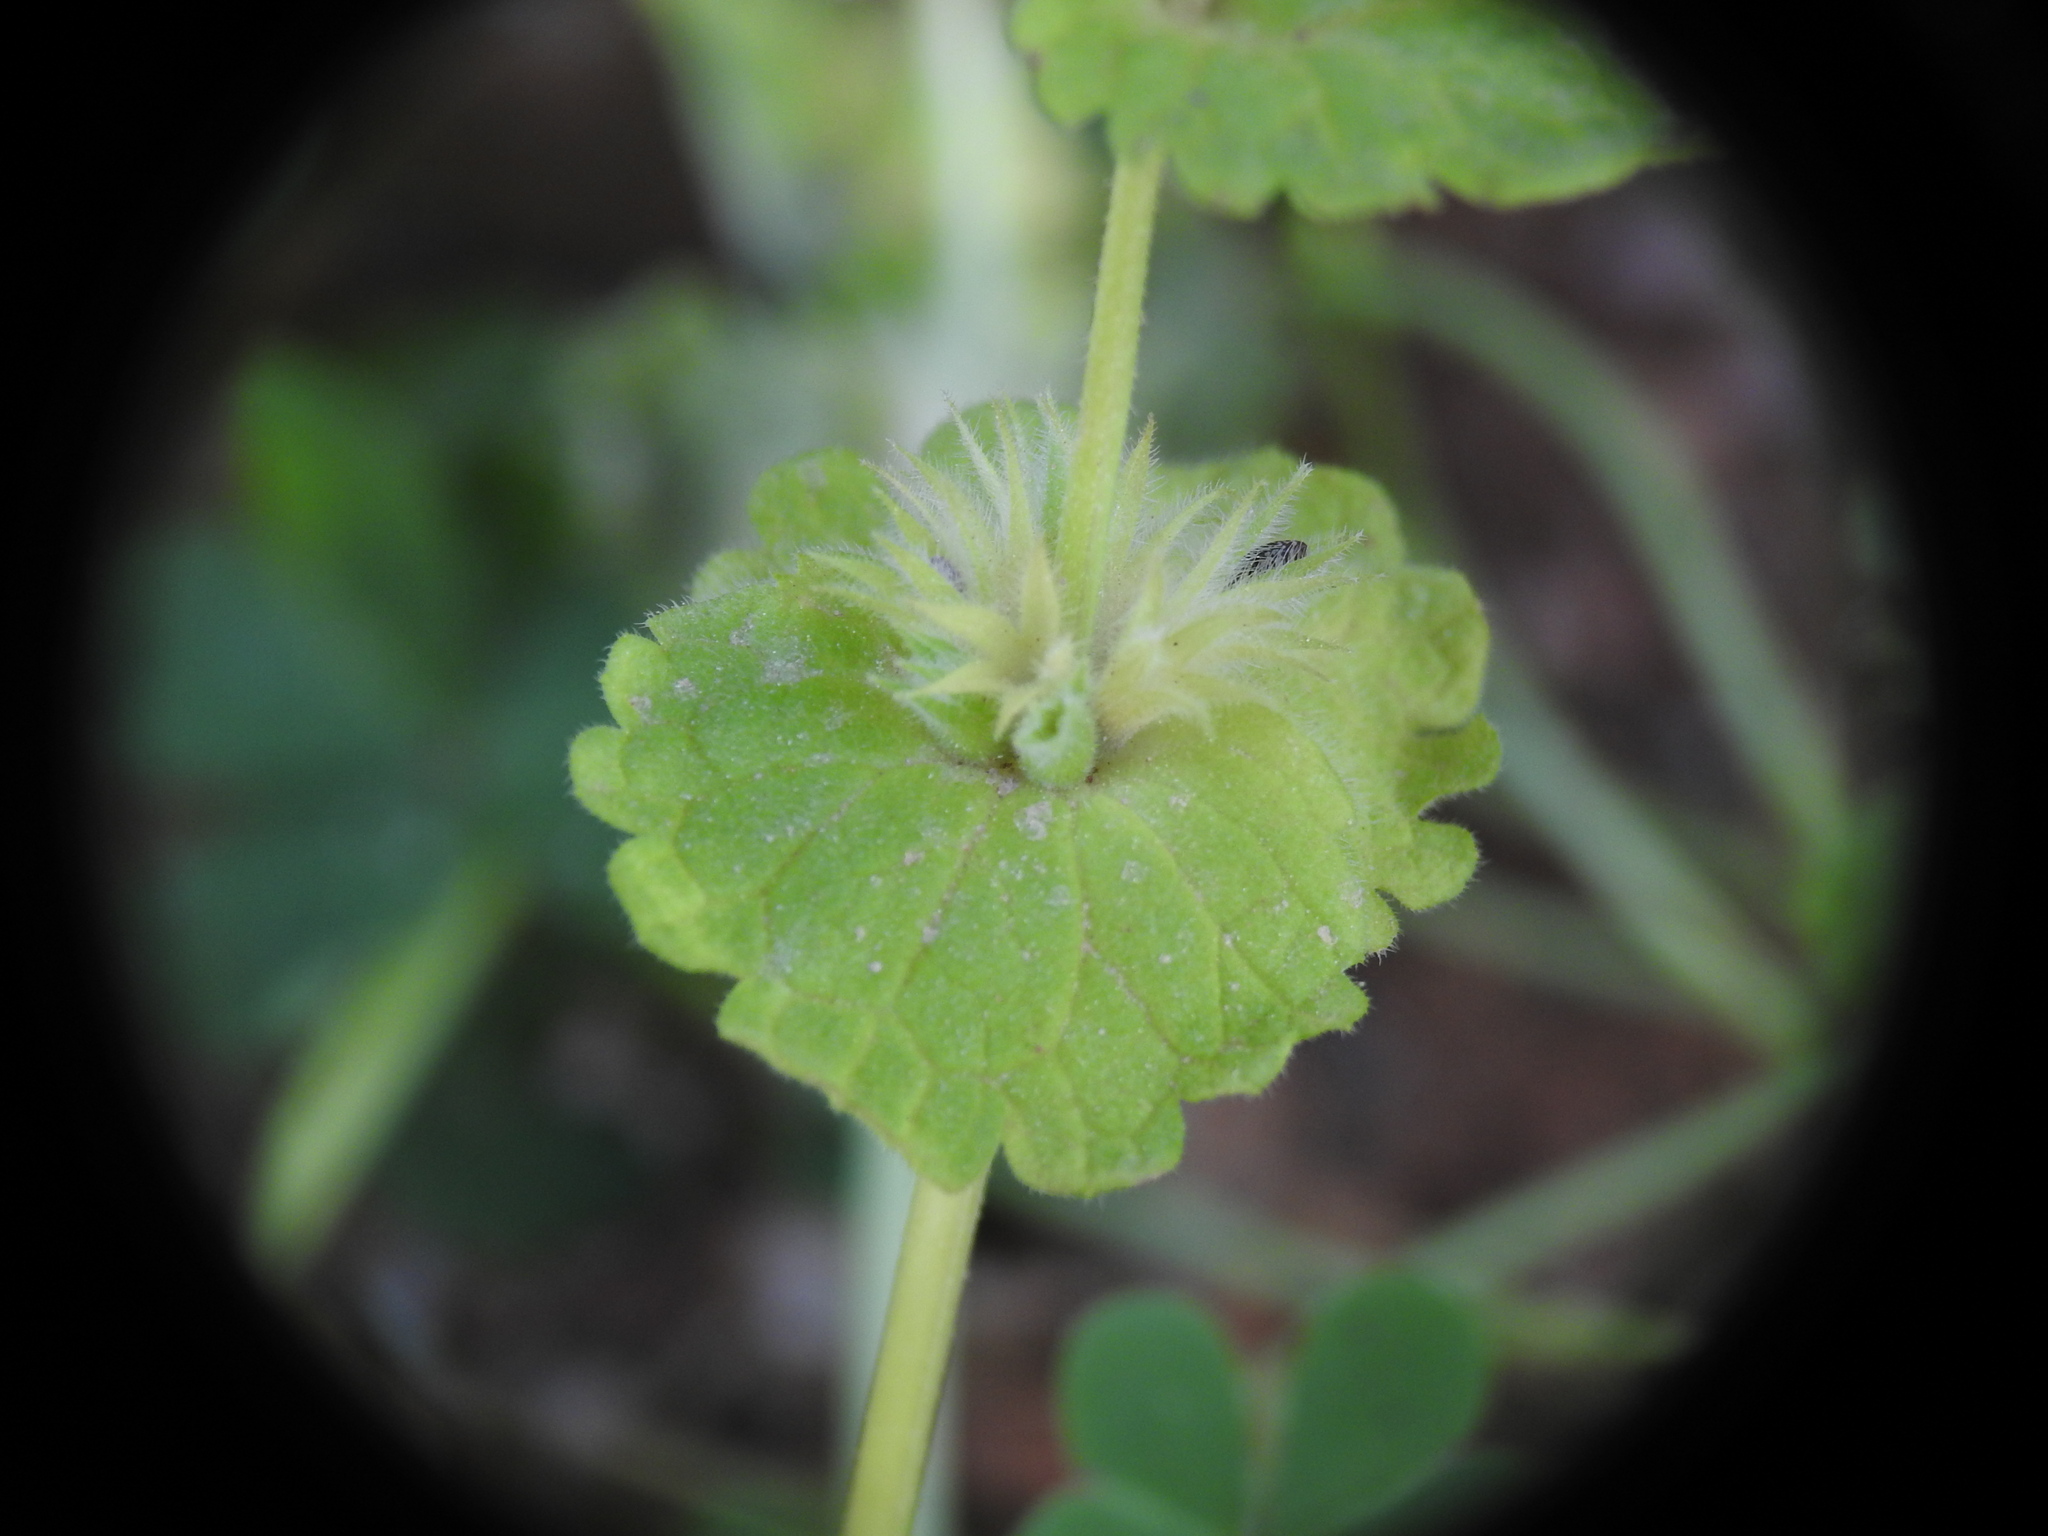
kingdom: Plantae
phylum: Tracheophyta
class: Magnoliopsida
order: Lamiales
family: Lamiaceae
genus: Lamium
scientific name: Lamium amplexicaule
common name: Henbit dead-nettle
